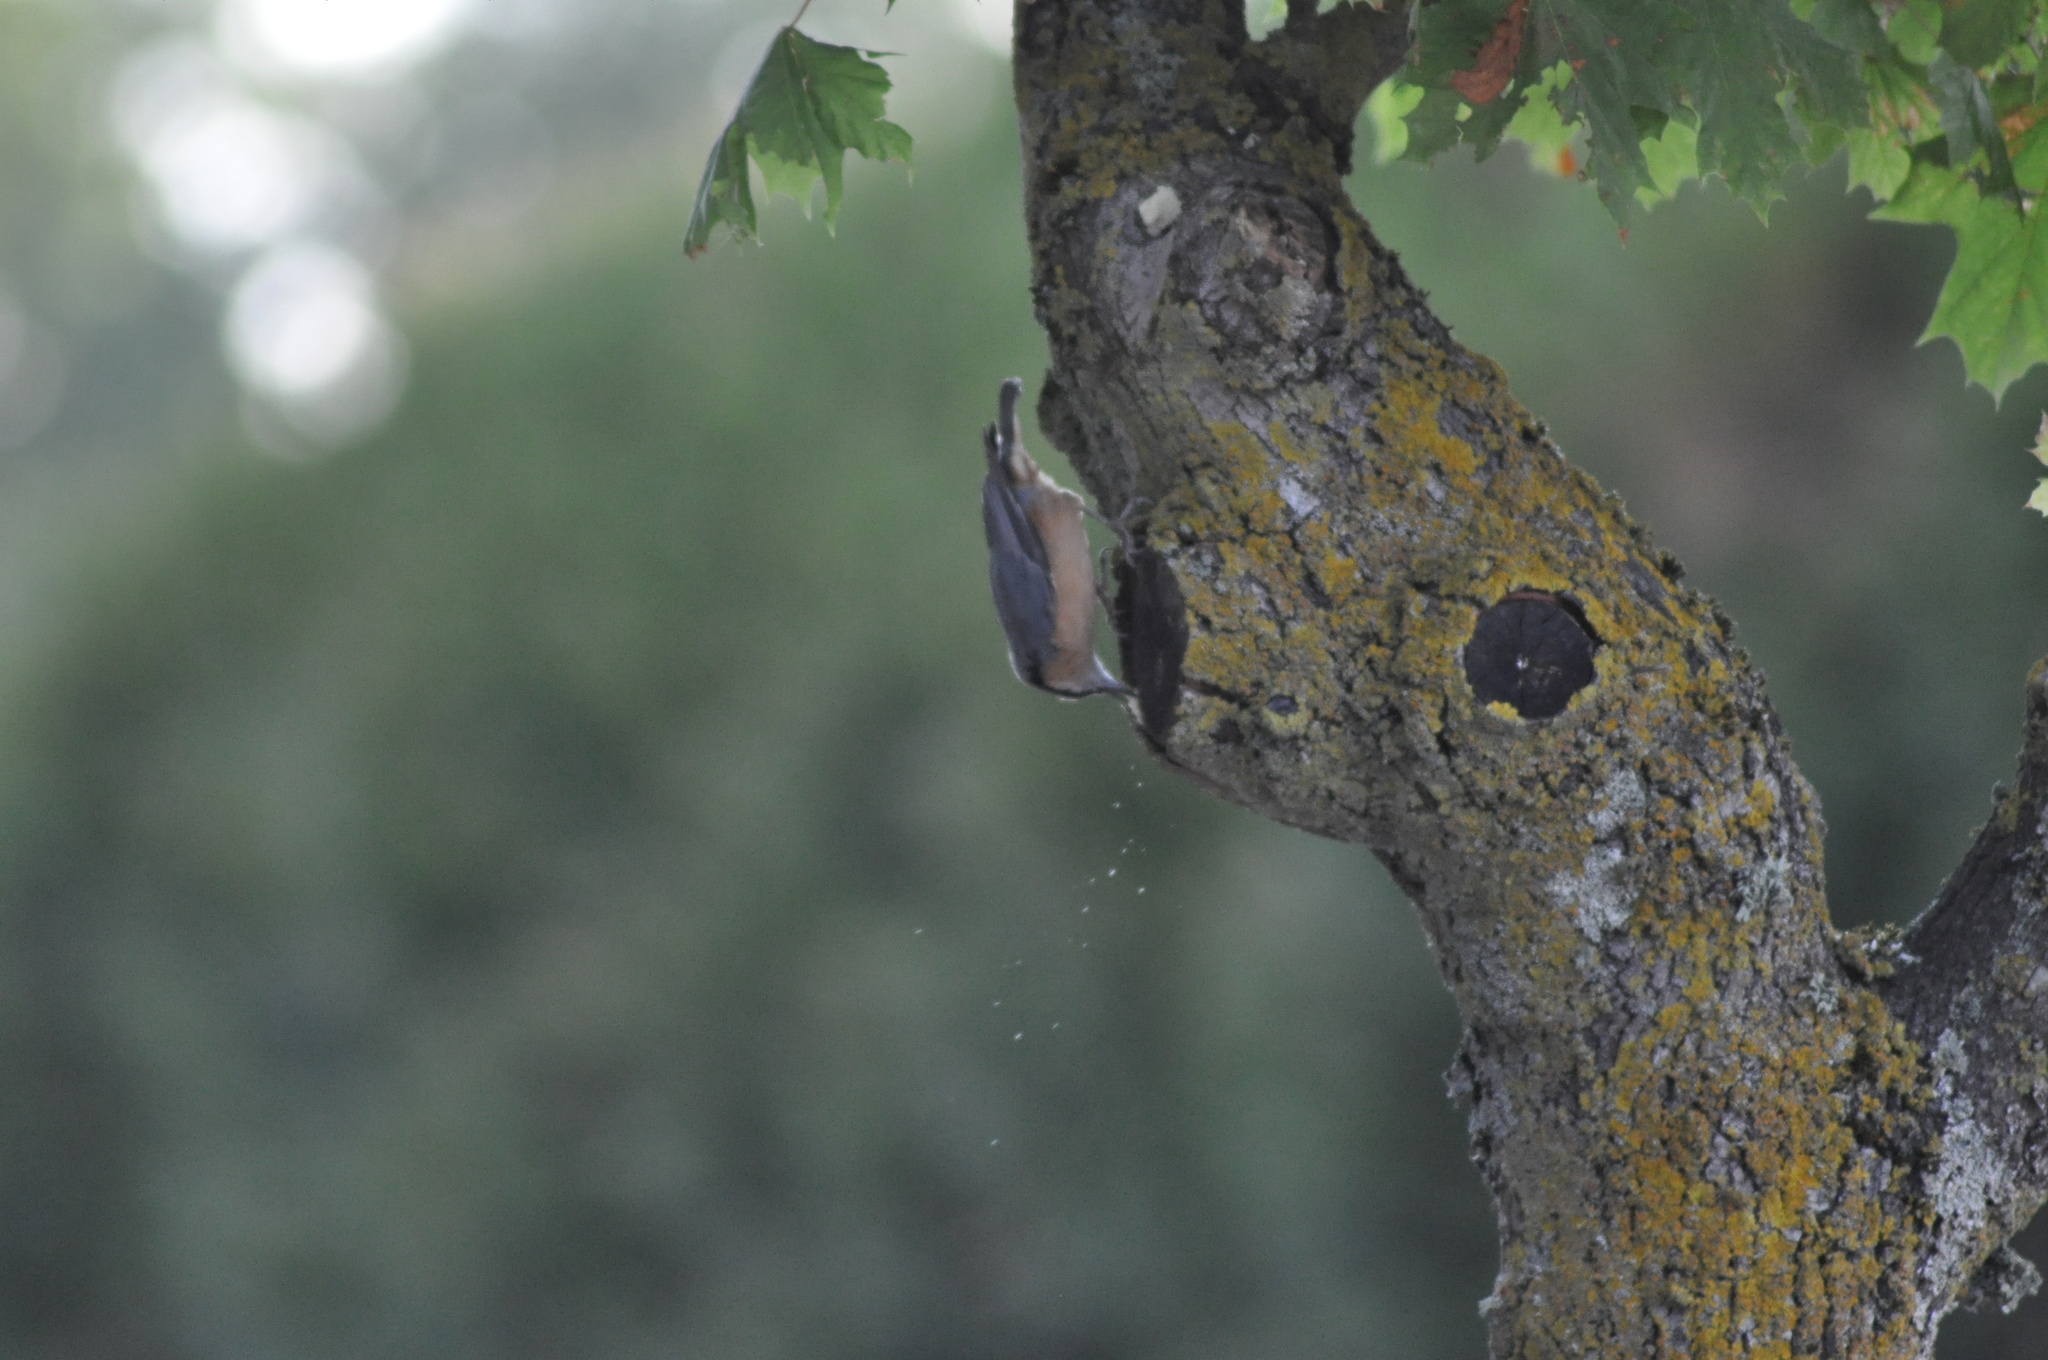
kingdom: Animalia
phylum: Chordata
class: Aves
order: Passeriformes
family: Sittidae
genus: Sitta
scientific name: Sitta europaea
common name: Eurasian nuthatch
